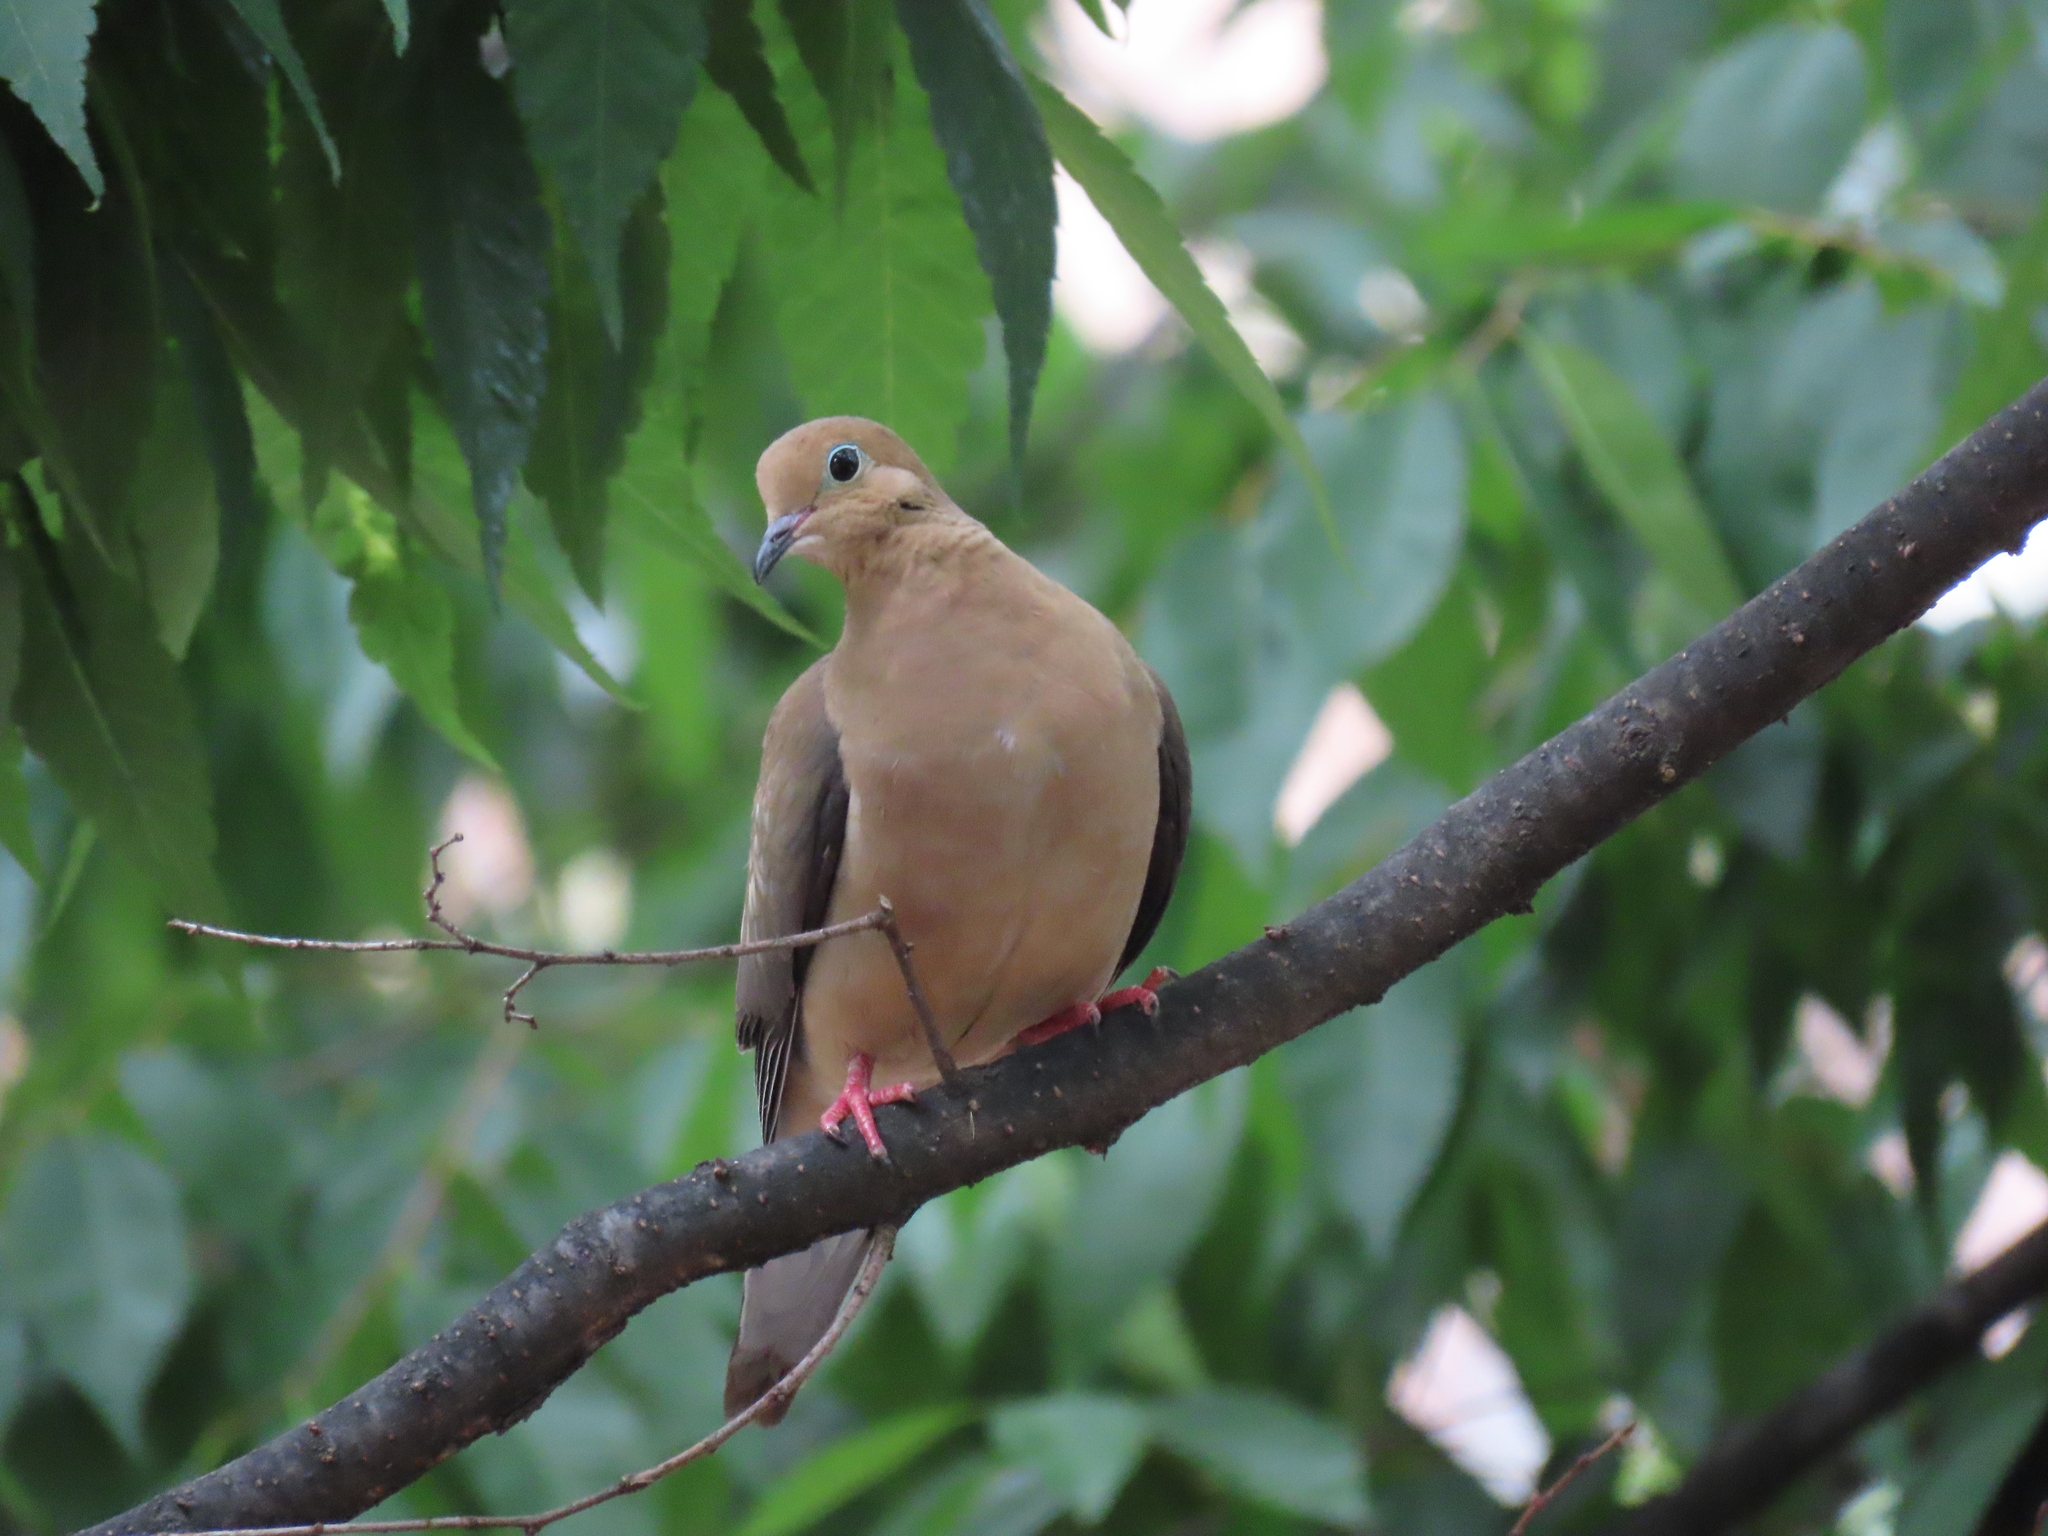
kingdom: Animalia
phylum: Chordata
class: Aves
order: Columbiformes
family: Columbidae
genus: Zenaida
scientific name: Zenaida macroura
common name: Mourning dove
